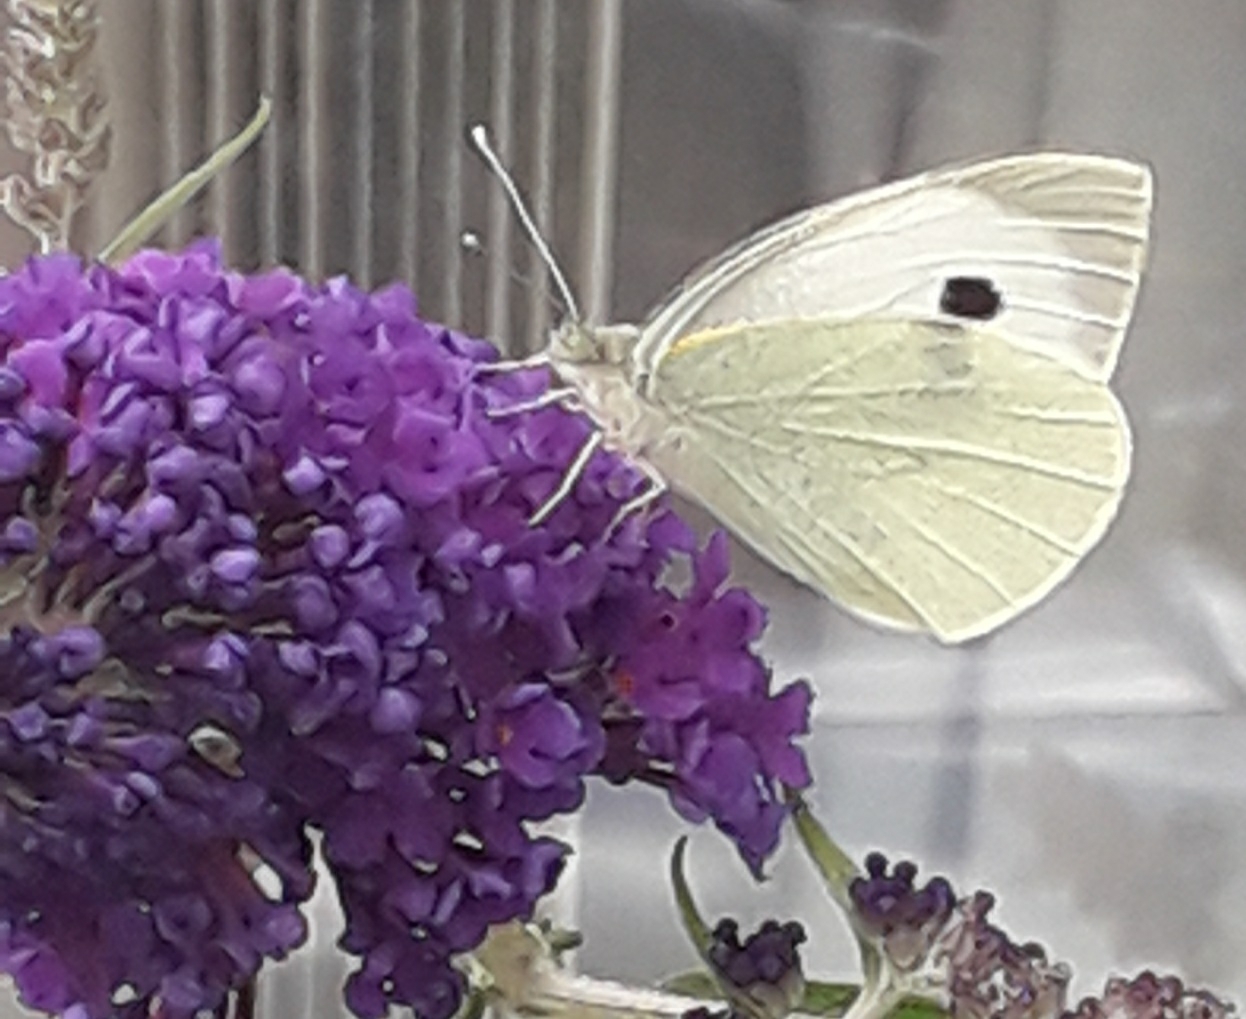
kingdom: Animalia
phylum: Arthropoda
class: Insecta
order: Lepidoptera
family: Pieridae
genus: Pieris
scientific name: Pieris brassicae
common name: Large white
